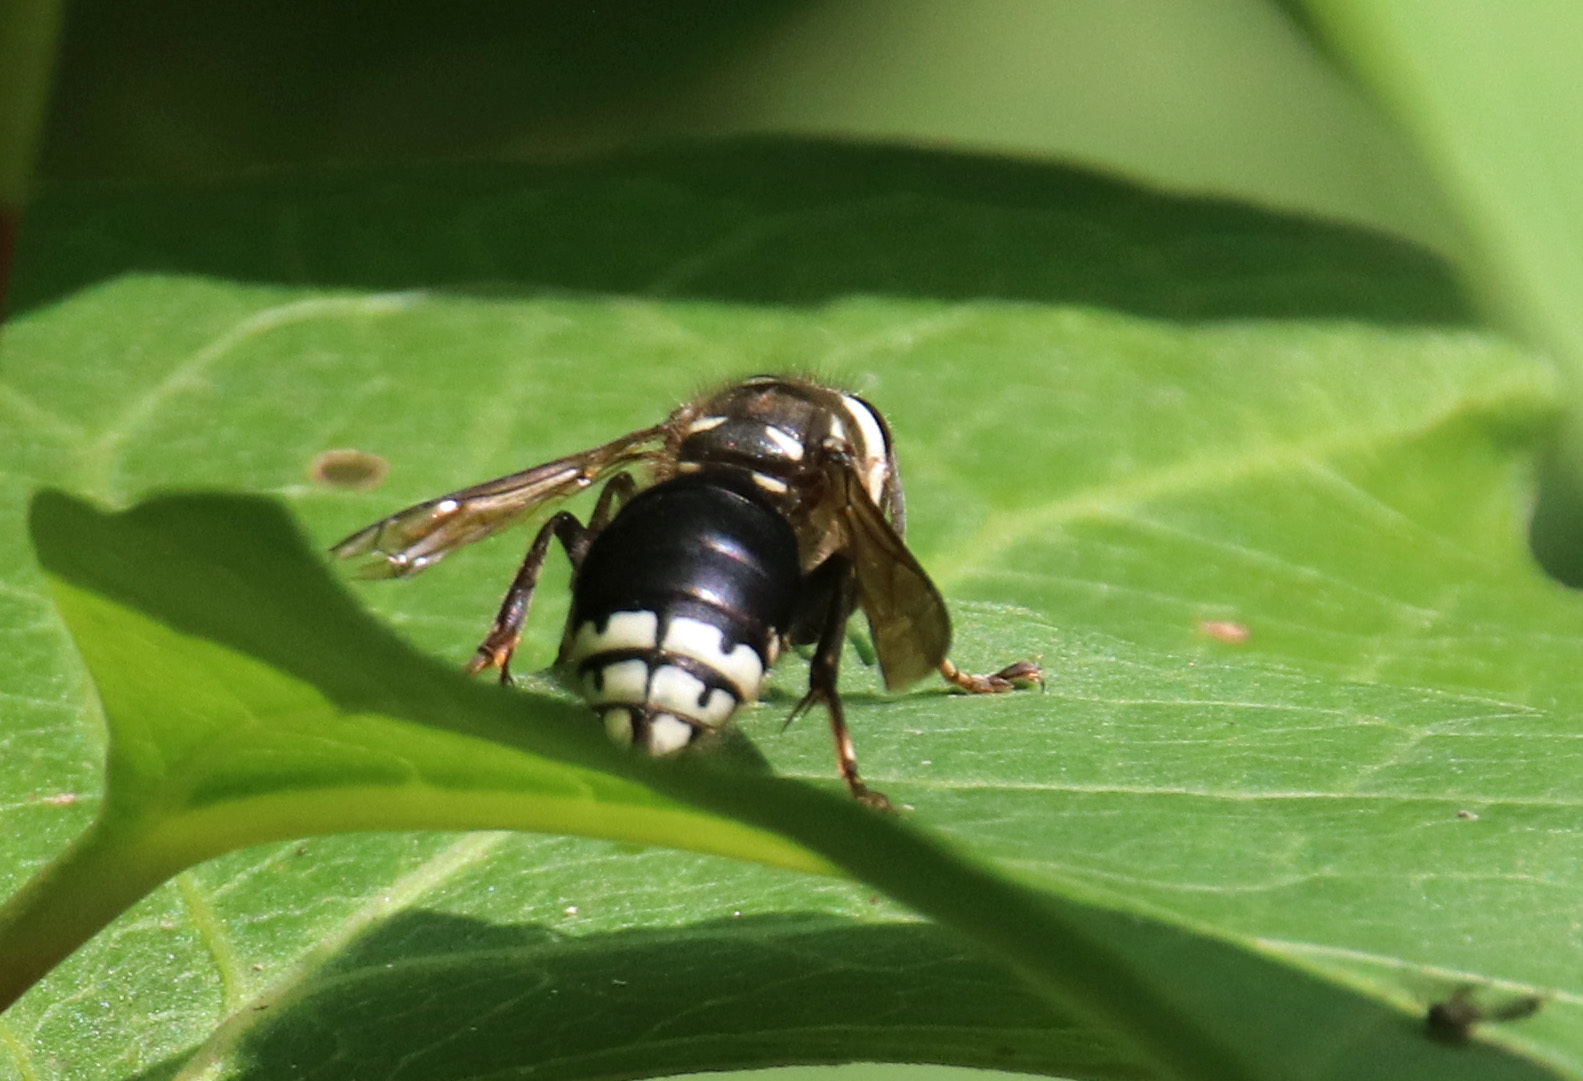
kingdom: Animalia
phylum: Arthropoda
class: Insecta
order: Hymenoptera
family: Vespidae
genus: Dolichovespula
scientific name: Dolichovespula maculata
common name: Bald-faced hornet
